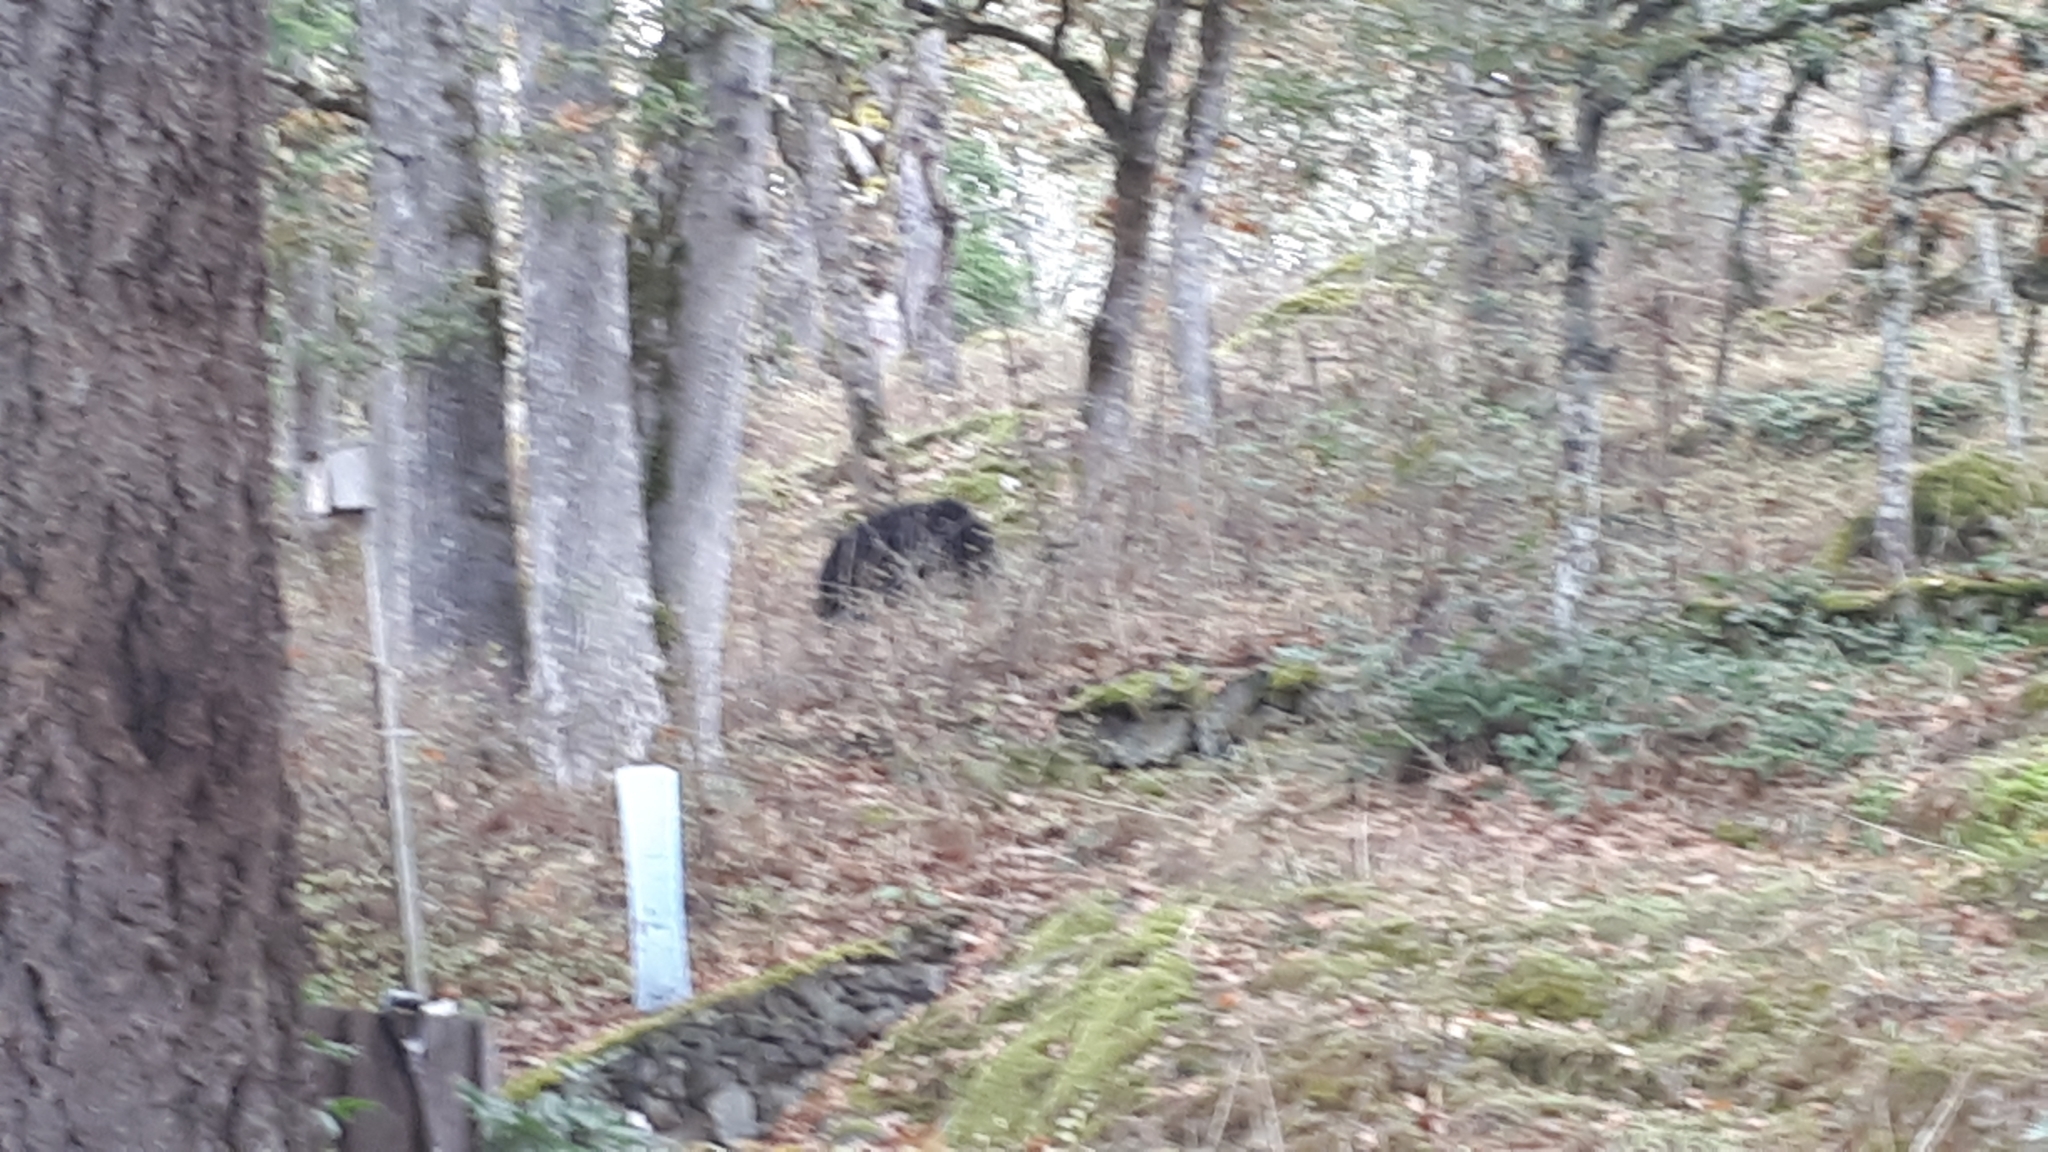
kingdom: Animalia
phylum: Chordata
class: Mammalia
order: Carnivora
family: Ursidae
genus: Ursus
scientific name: Ursus americanus
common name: American black bear
